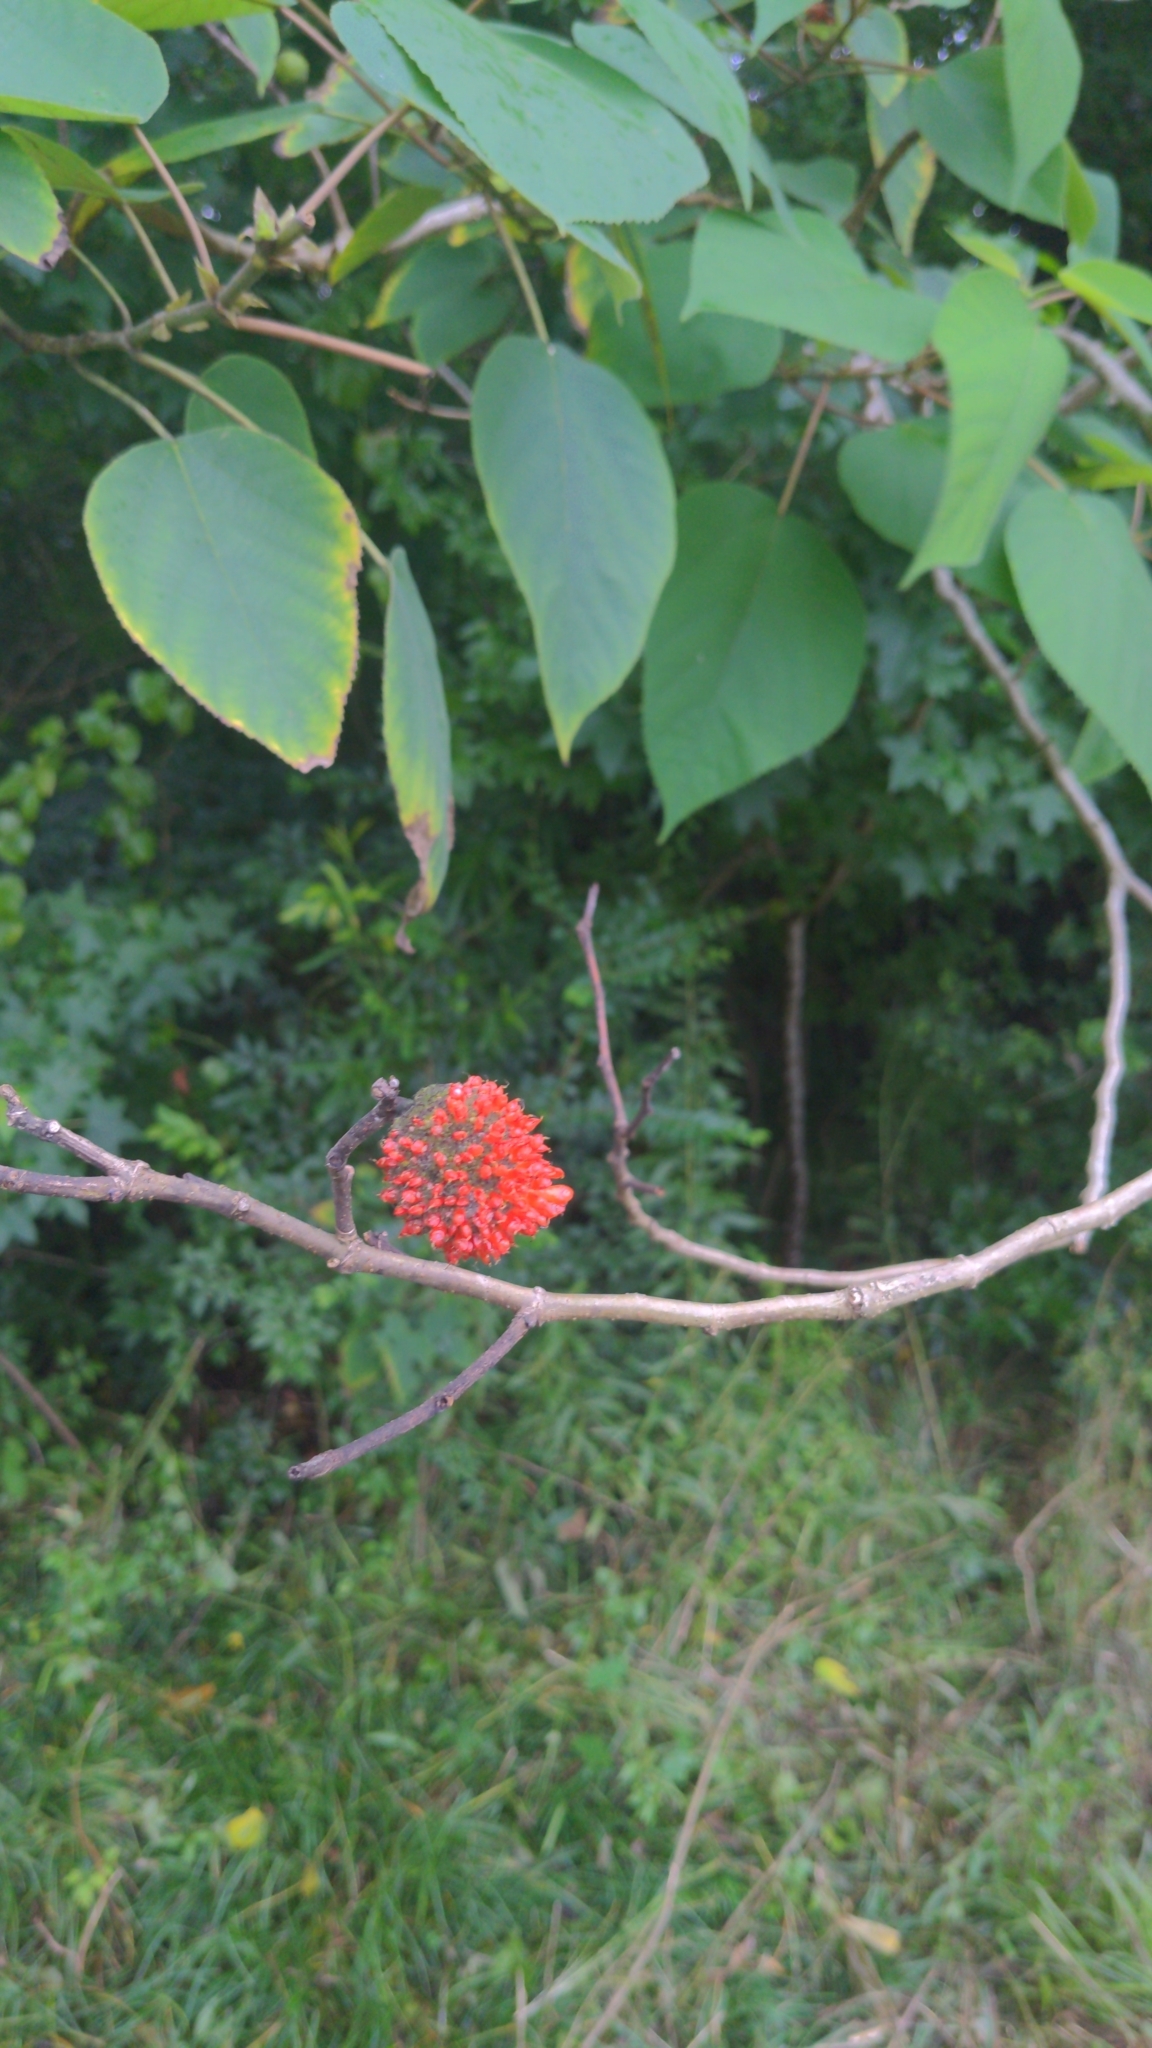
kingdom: Plantae
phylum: Tracheophyta
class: Magnoliopsida
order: Rosales
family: Moraceae
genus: Broussonetia
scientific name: Broussonetia papyrifera
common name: Paper mulberry
